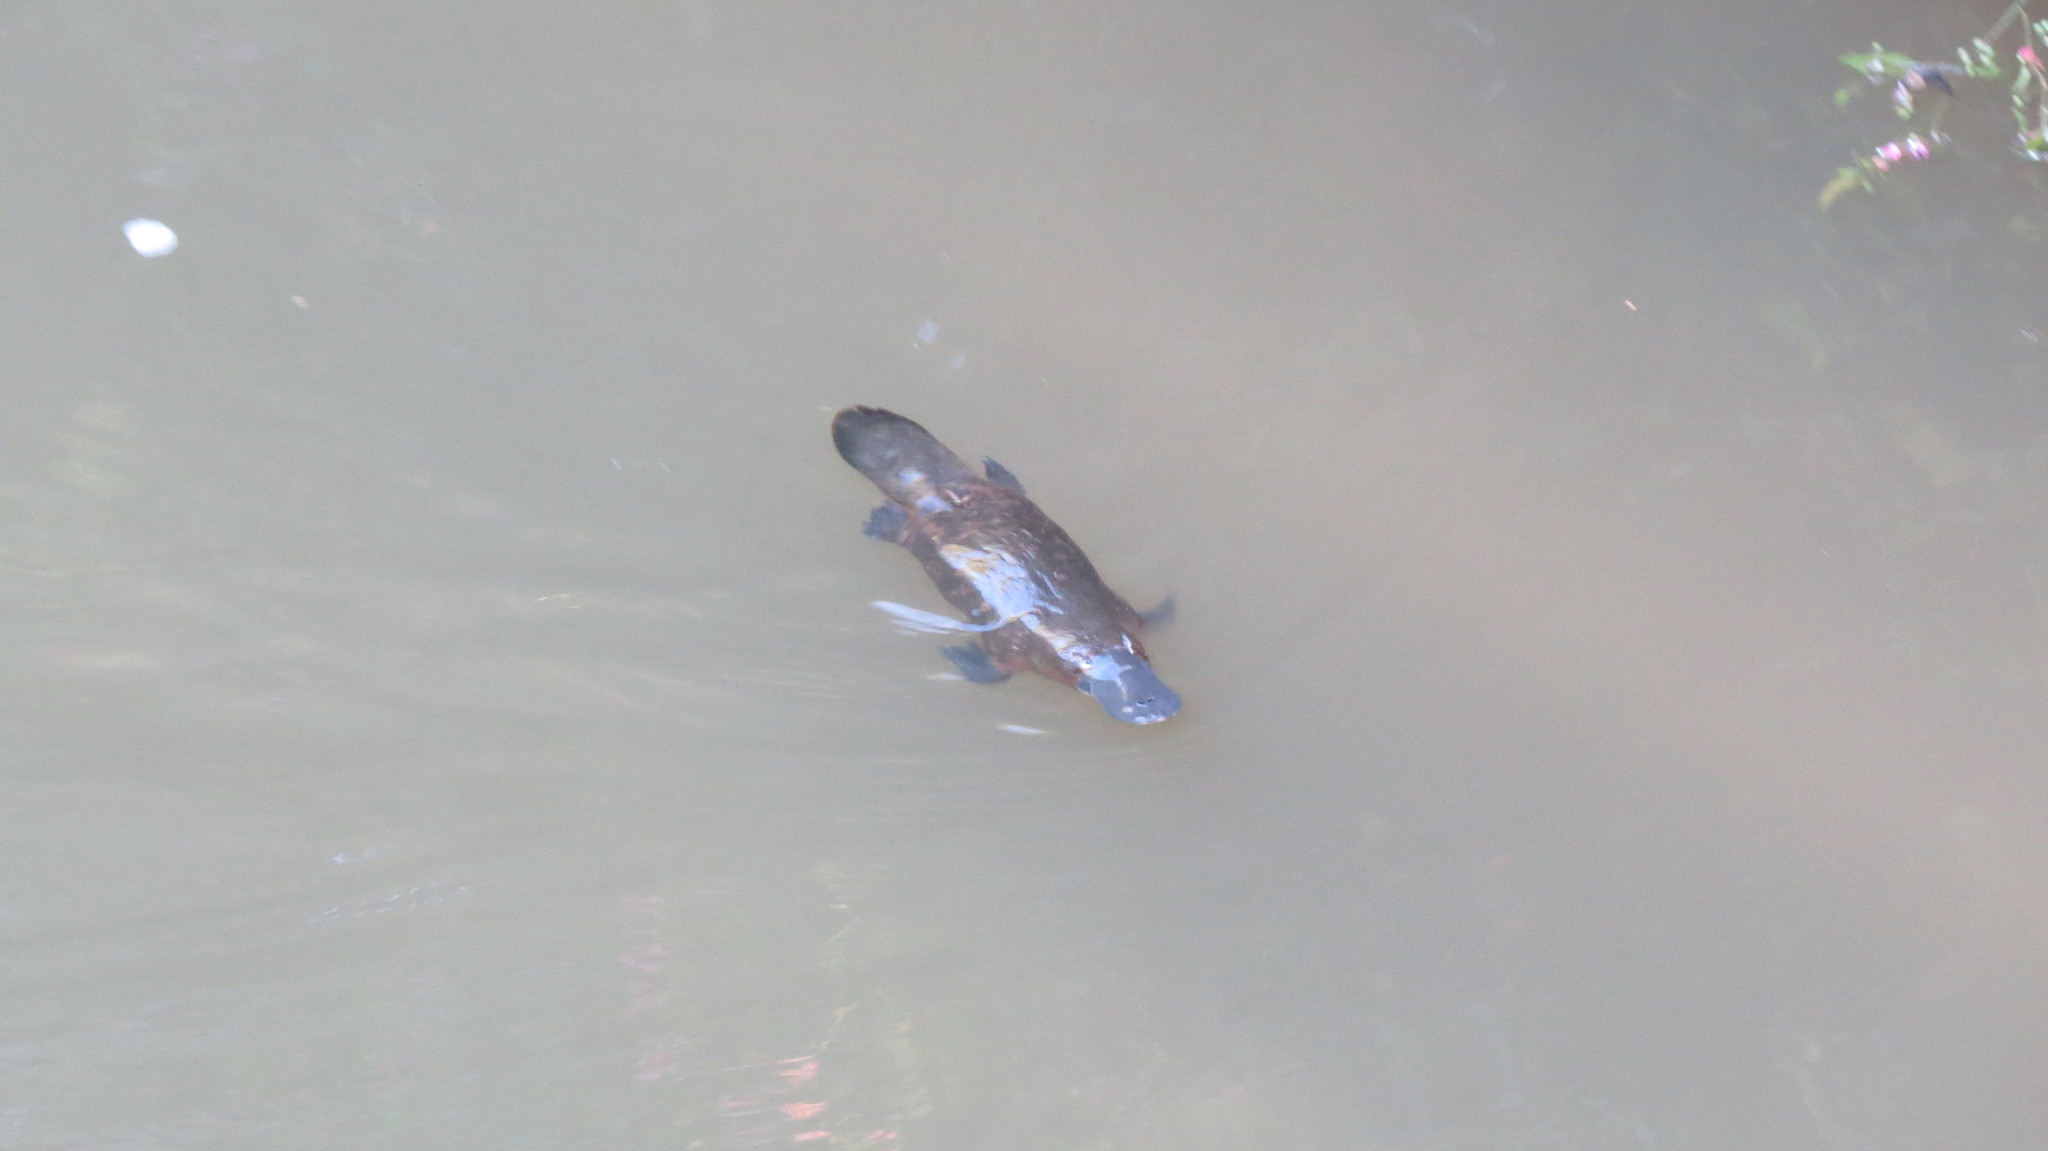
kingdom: Animalia
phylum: Chordata
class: Mammalia
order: Monotremata
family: Ornithorhynchidae
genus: Ornithorhynchus
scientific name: Ornithorhynchus anatinus
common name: Platypus
